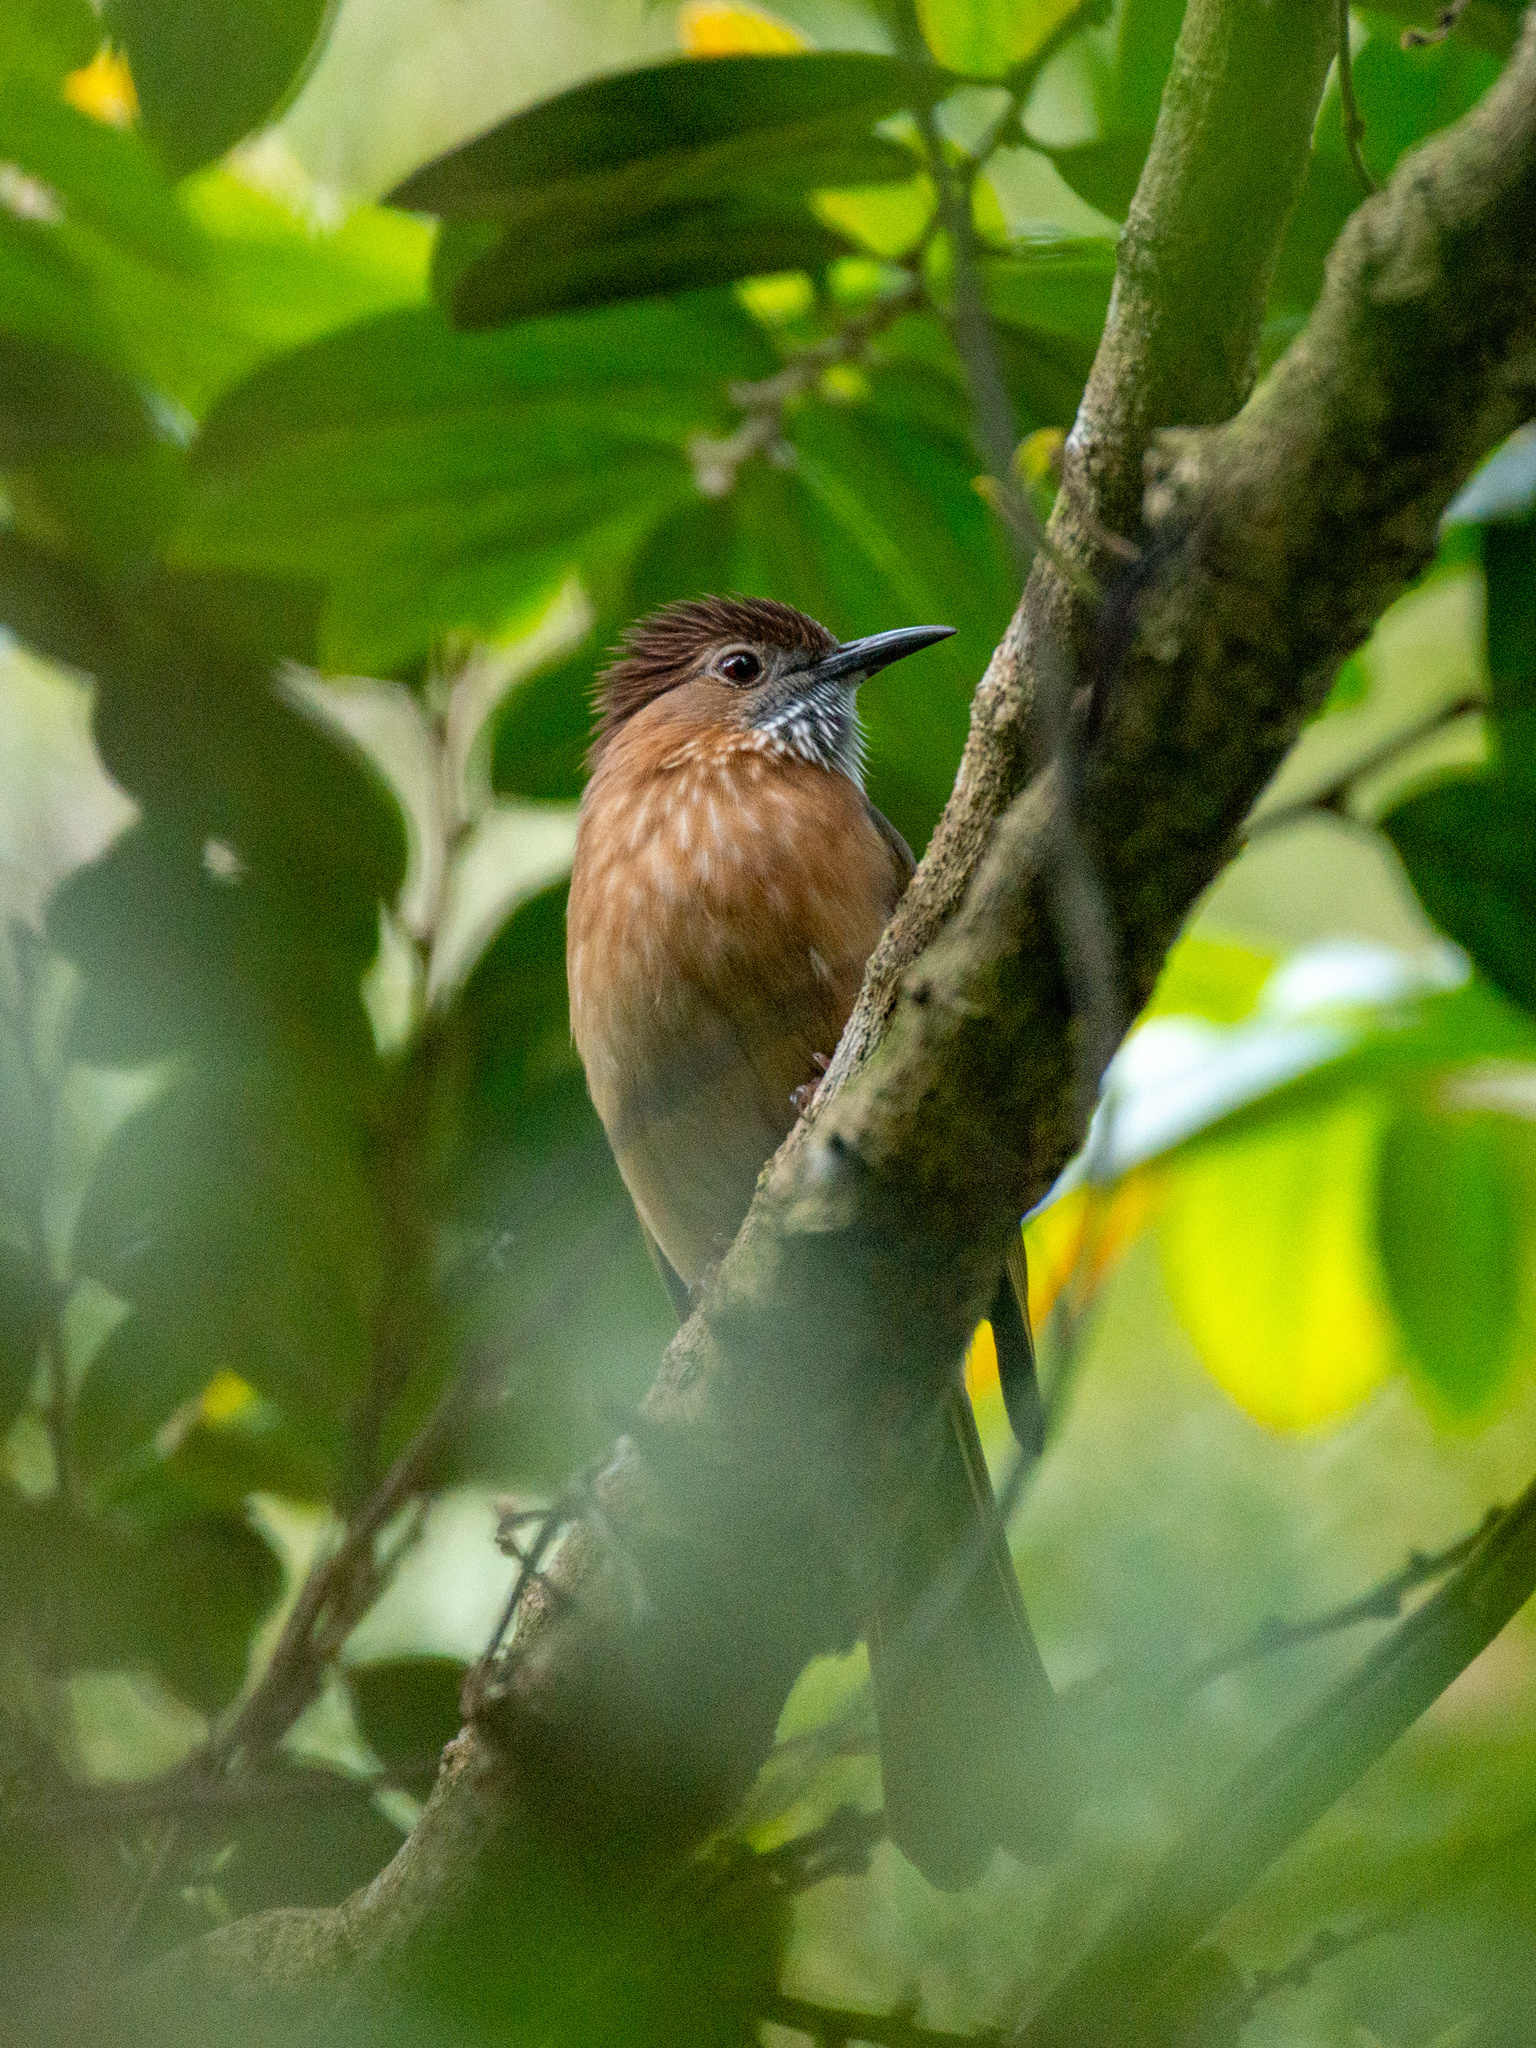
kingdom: Animalia
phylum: Chordata
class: Aves
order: Passeriformes
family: Pycnonotidae
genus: Ixos
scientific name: Ixos mcclellandii
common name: Mountain bulbul
